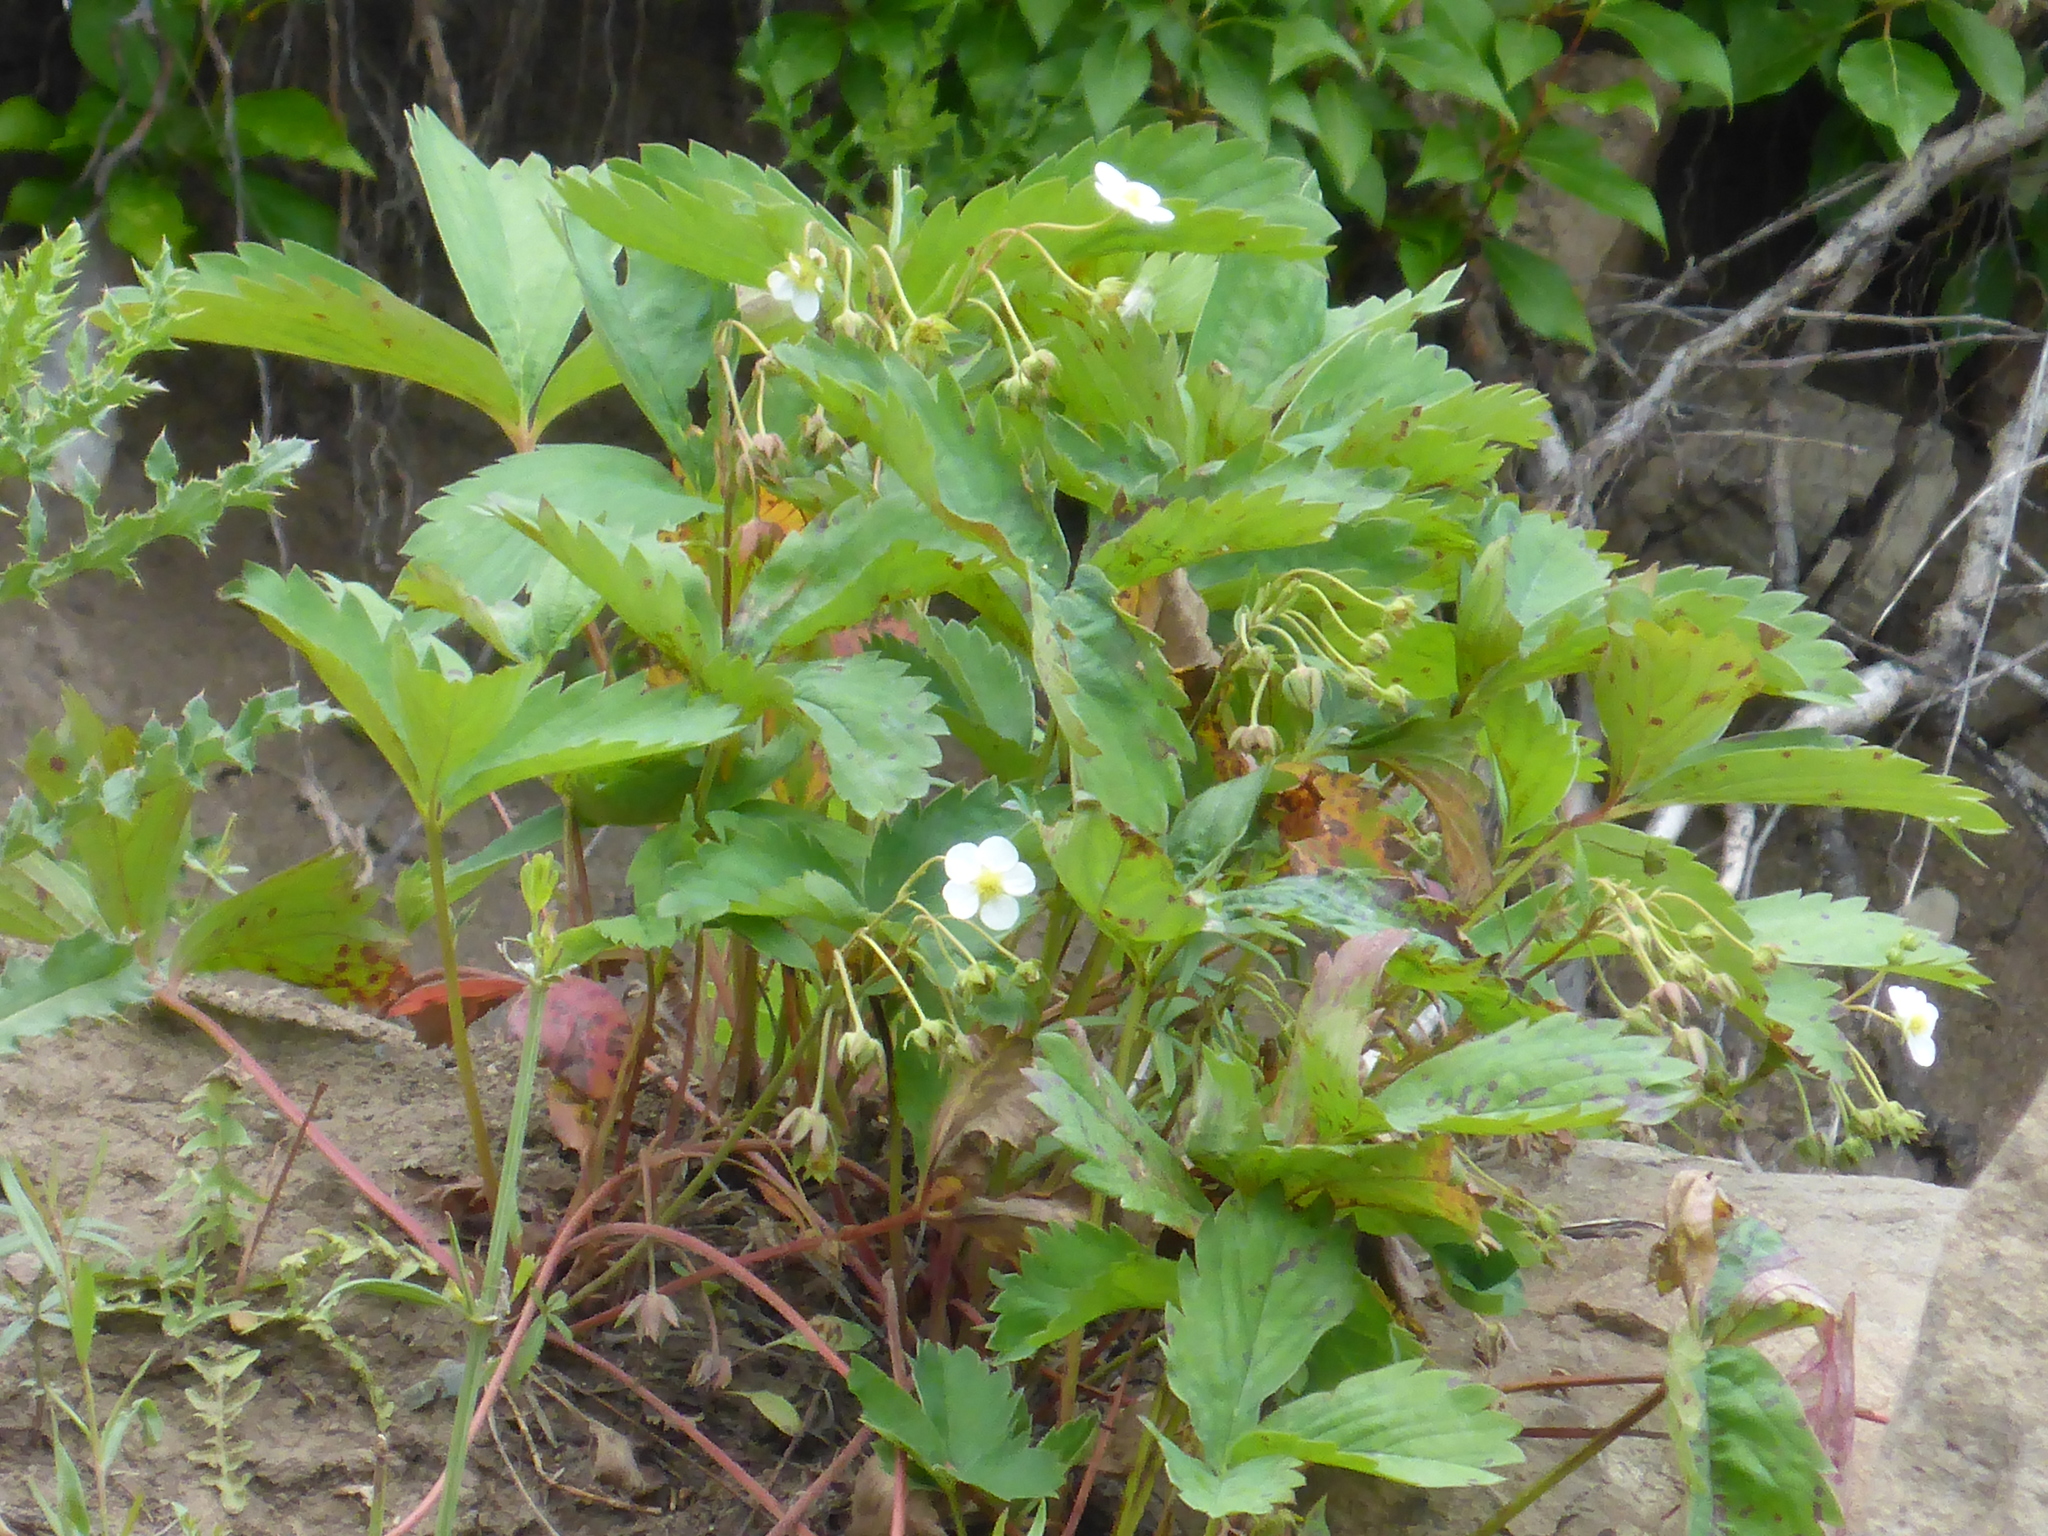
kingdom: Plantae
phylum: Tracheophyta
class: Magnoliopsida
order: Rosales
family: Rosaceae
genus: Fragaria
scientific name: Fragaria virginiana
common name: Thickleaved wild strawberry
